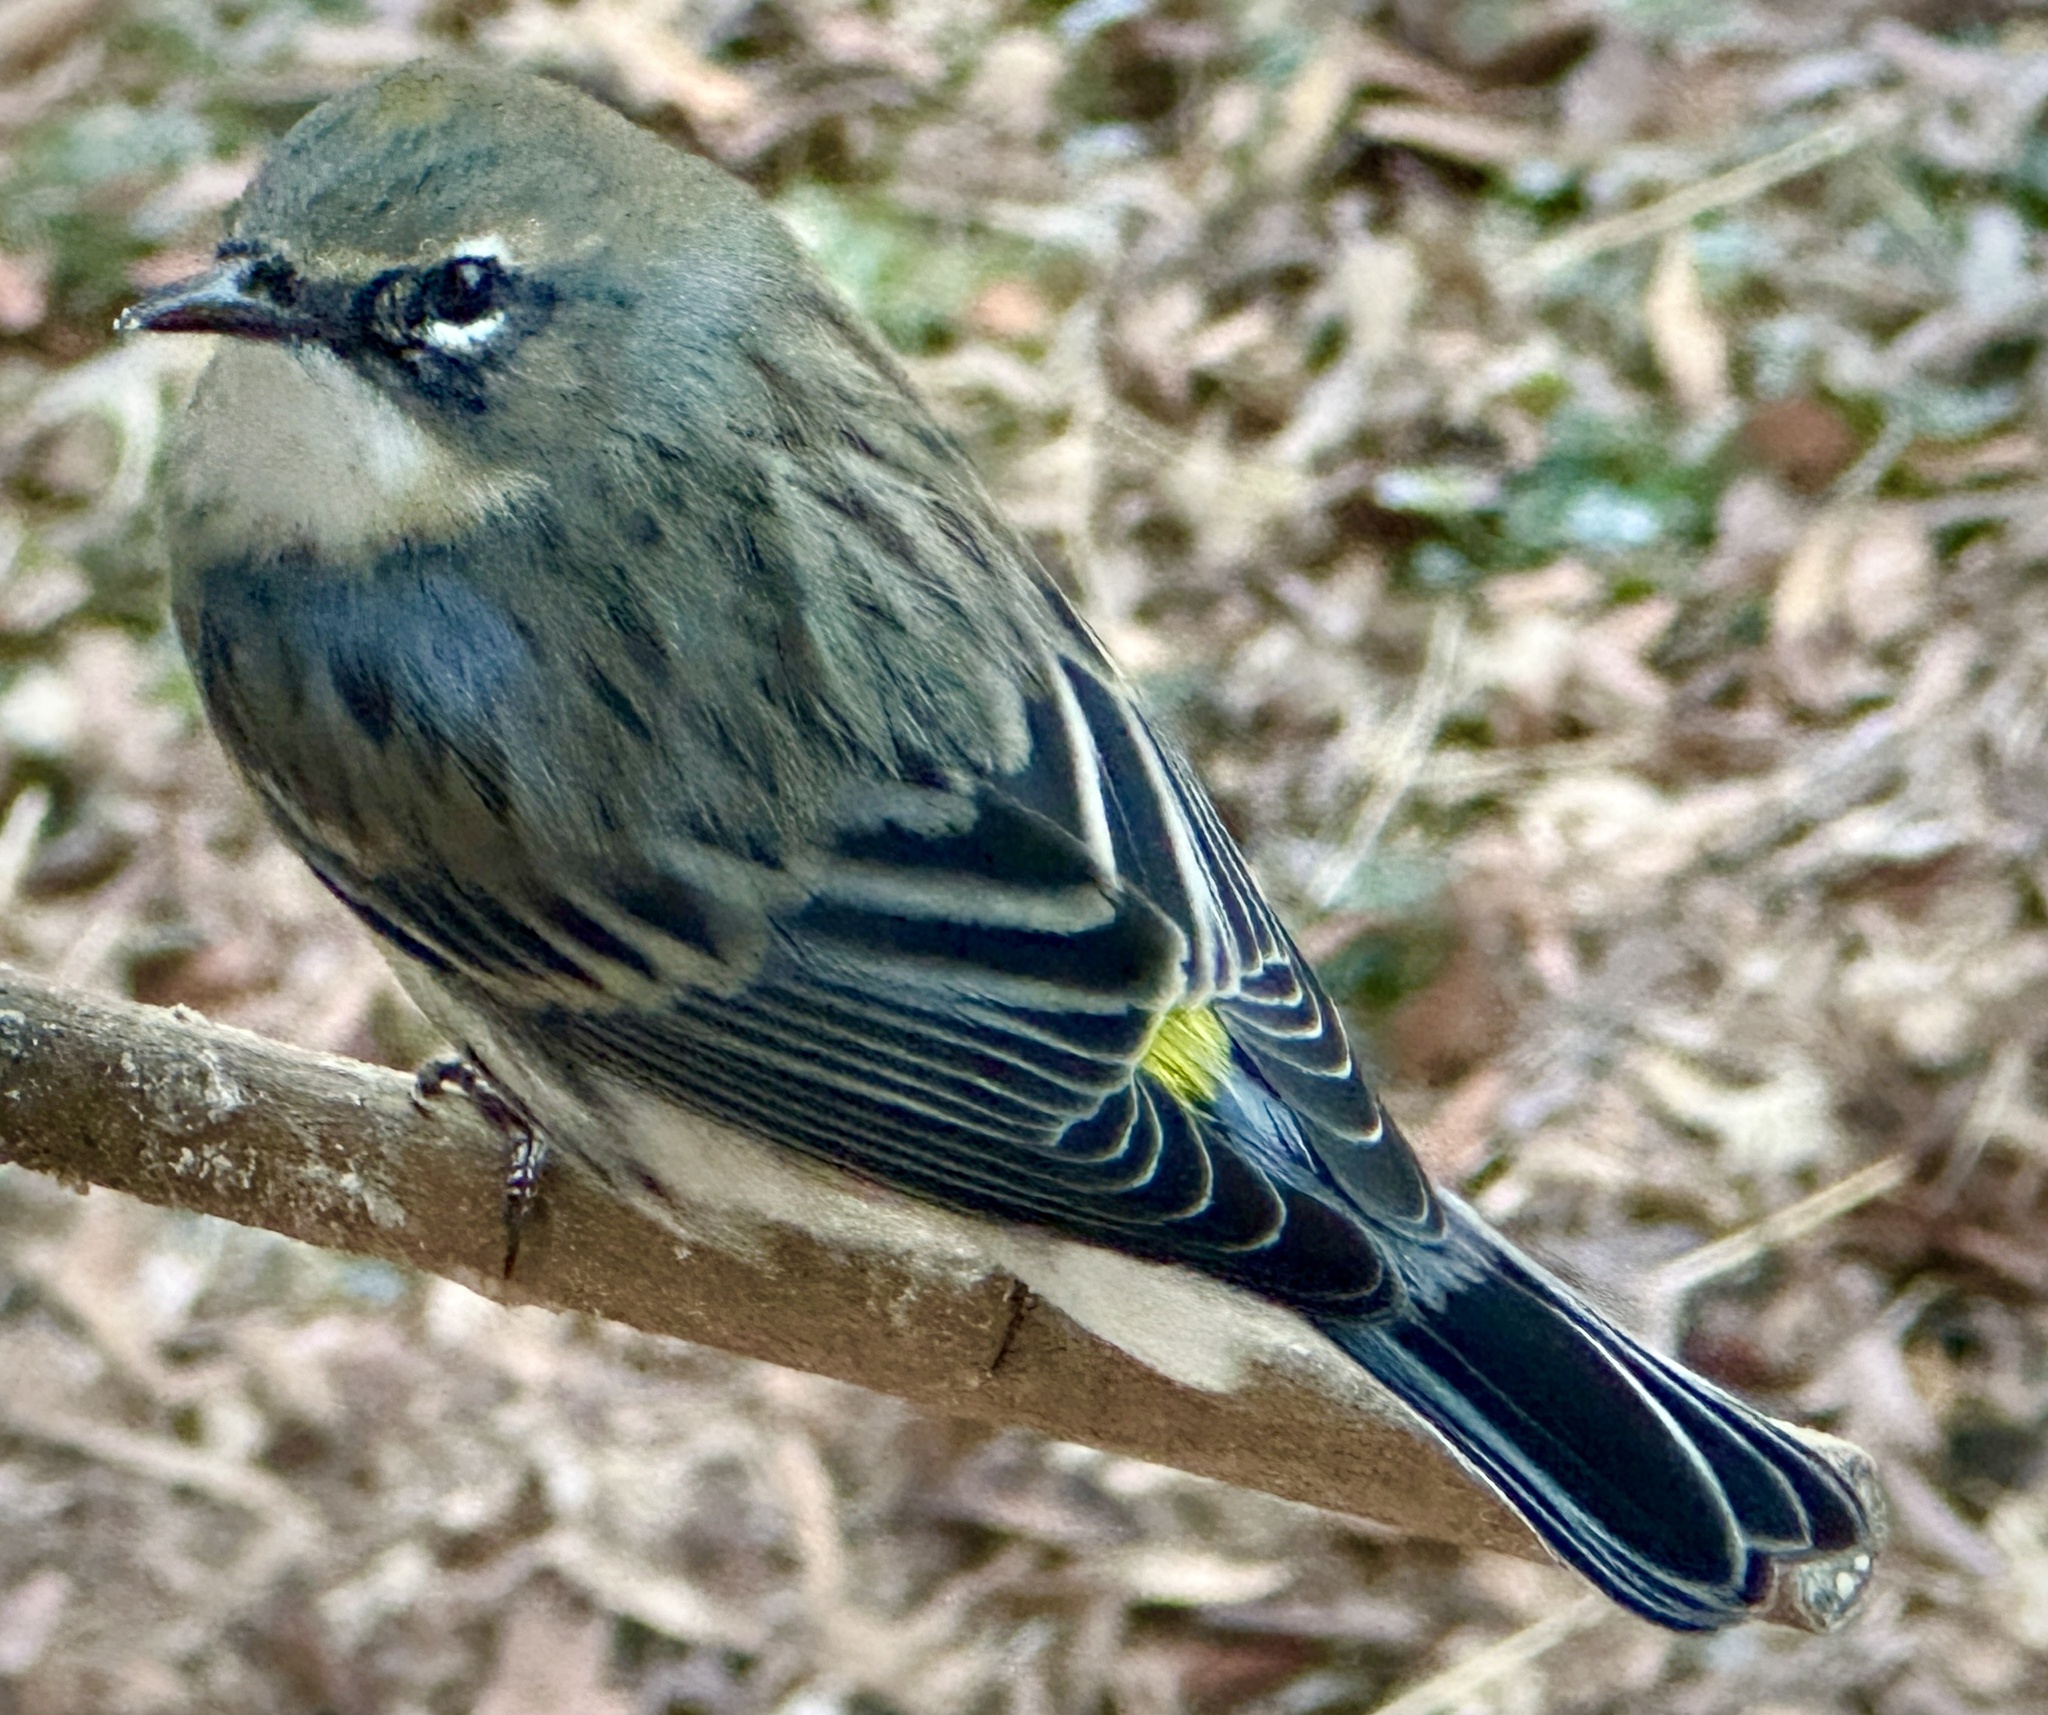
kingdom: Animalia
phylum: Chordata
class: Aves
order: Passeriformes
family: Parulidae
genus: Setophaga
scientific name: Setophaga coronata
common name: Myrtle warbler
